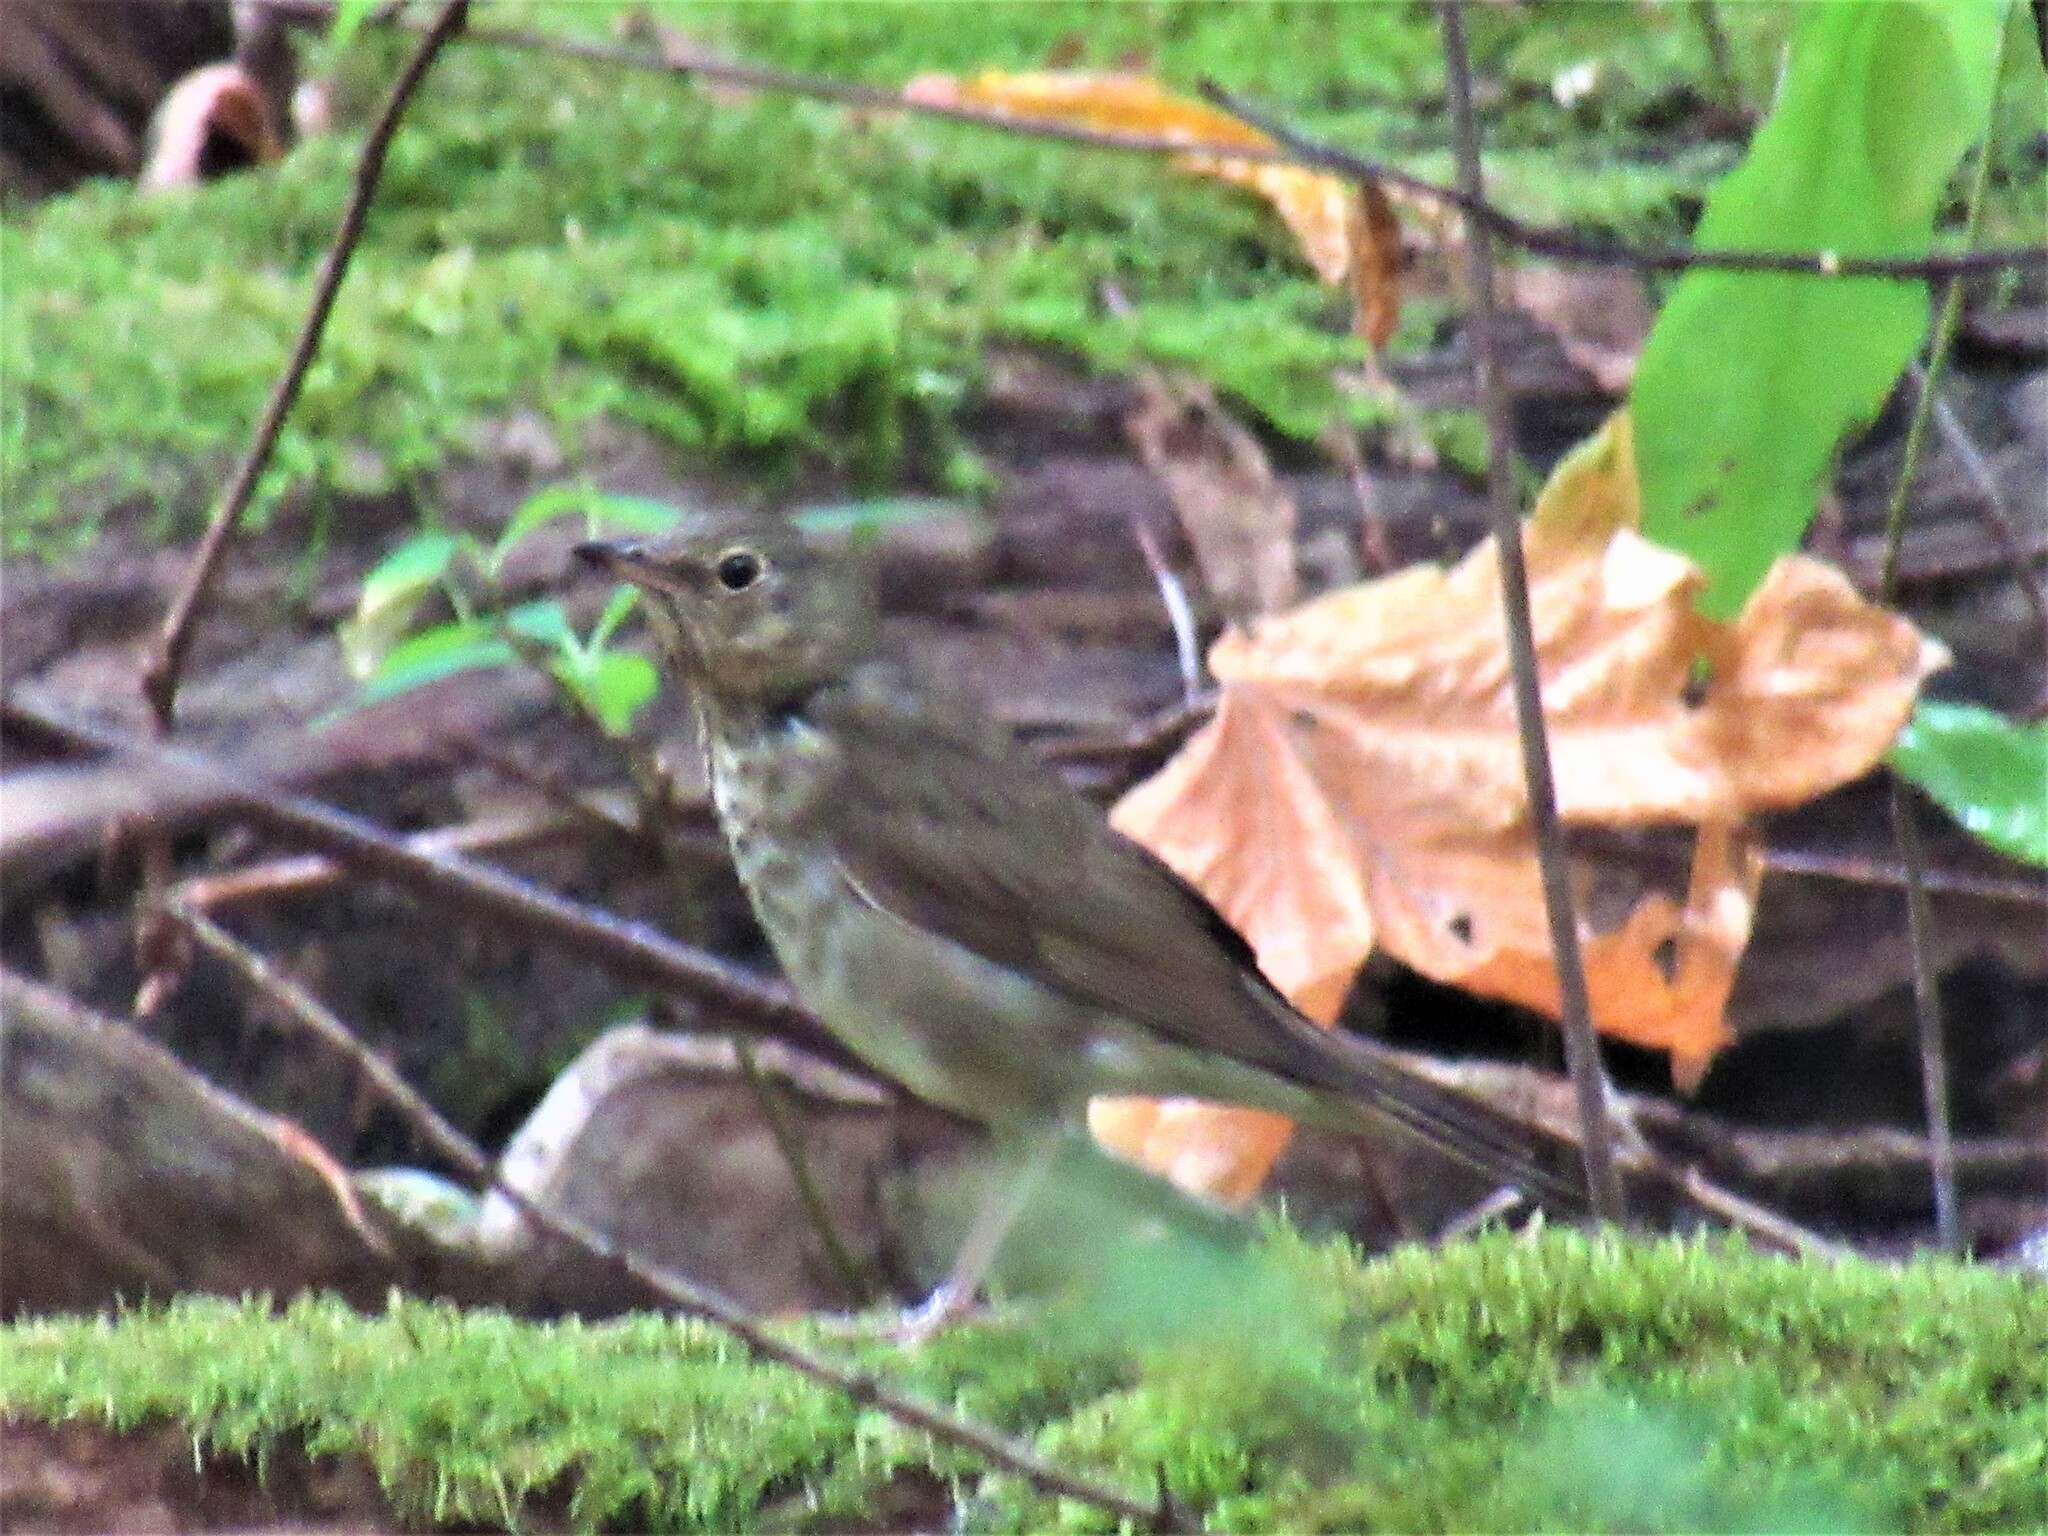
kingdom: Animalia
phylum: Chordata
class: Aves
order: Passeriformes
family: Turdidae
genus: Catharus
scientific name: Catharus ustulatus
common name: Swainson's thrush
